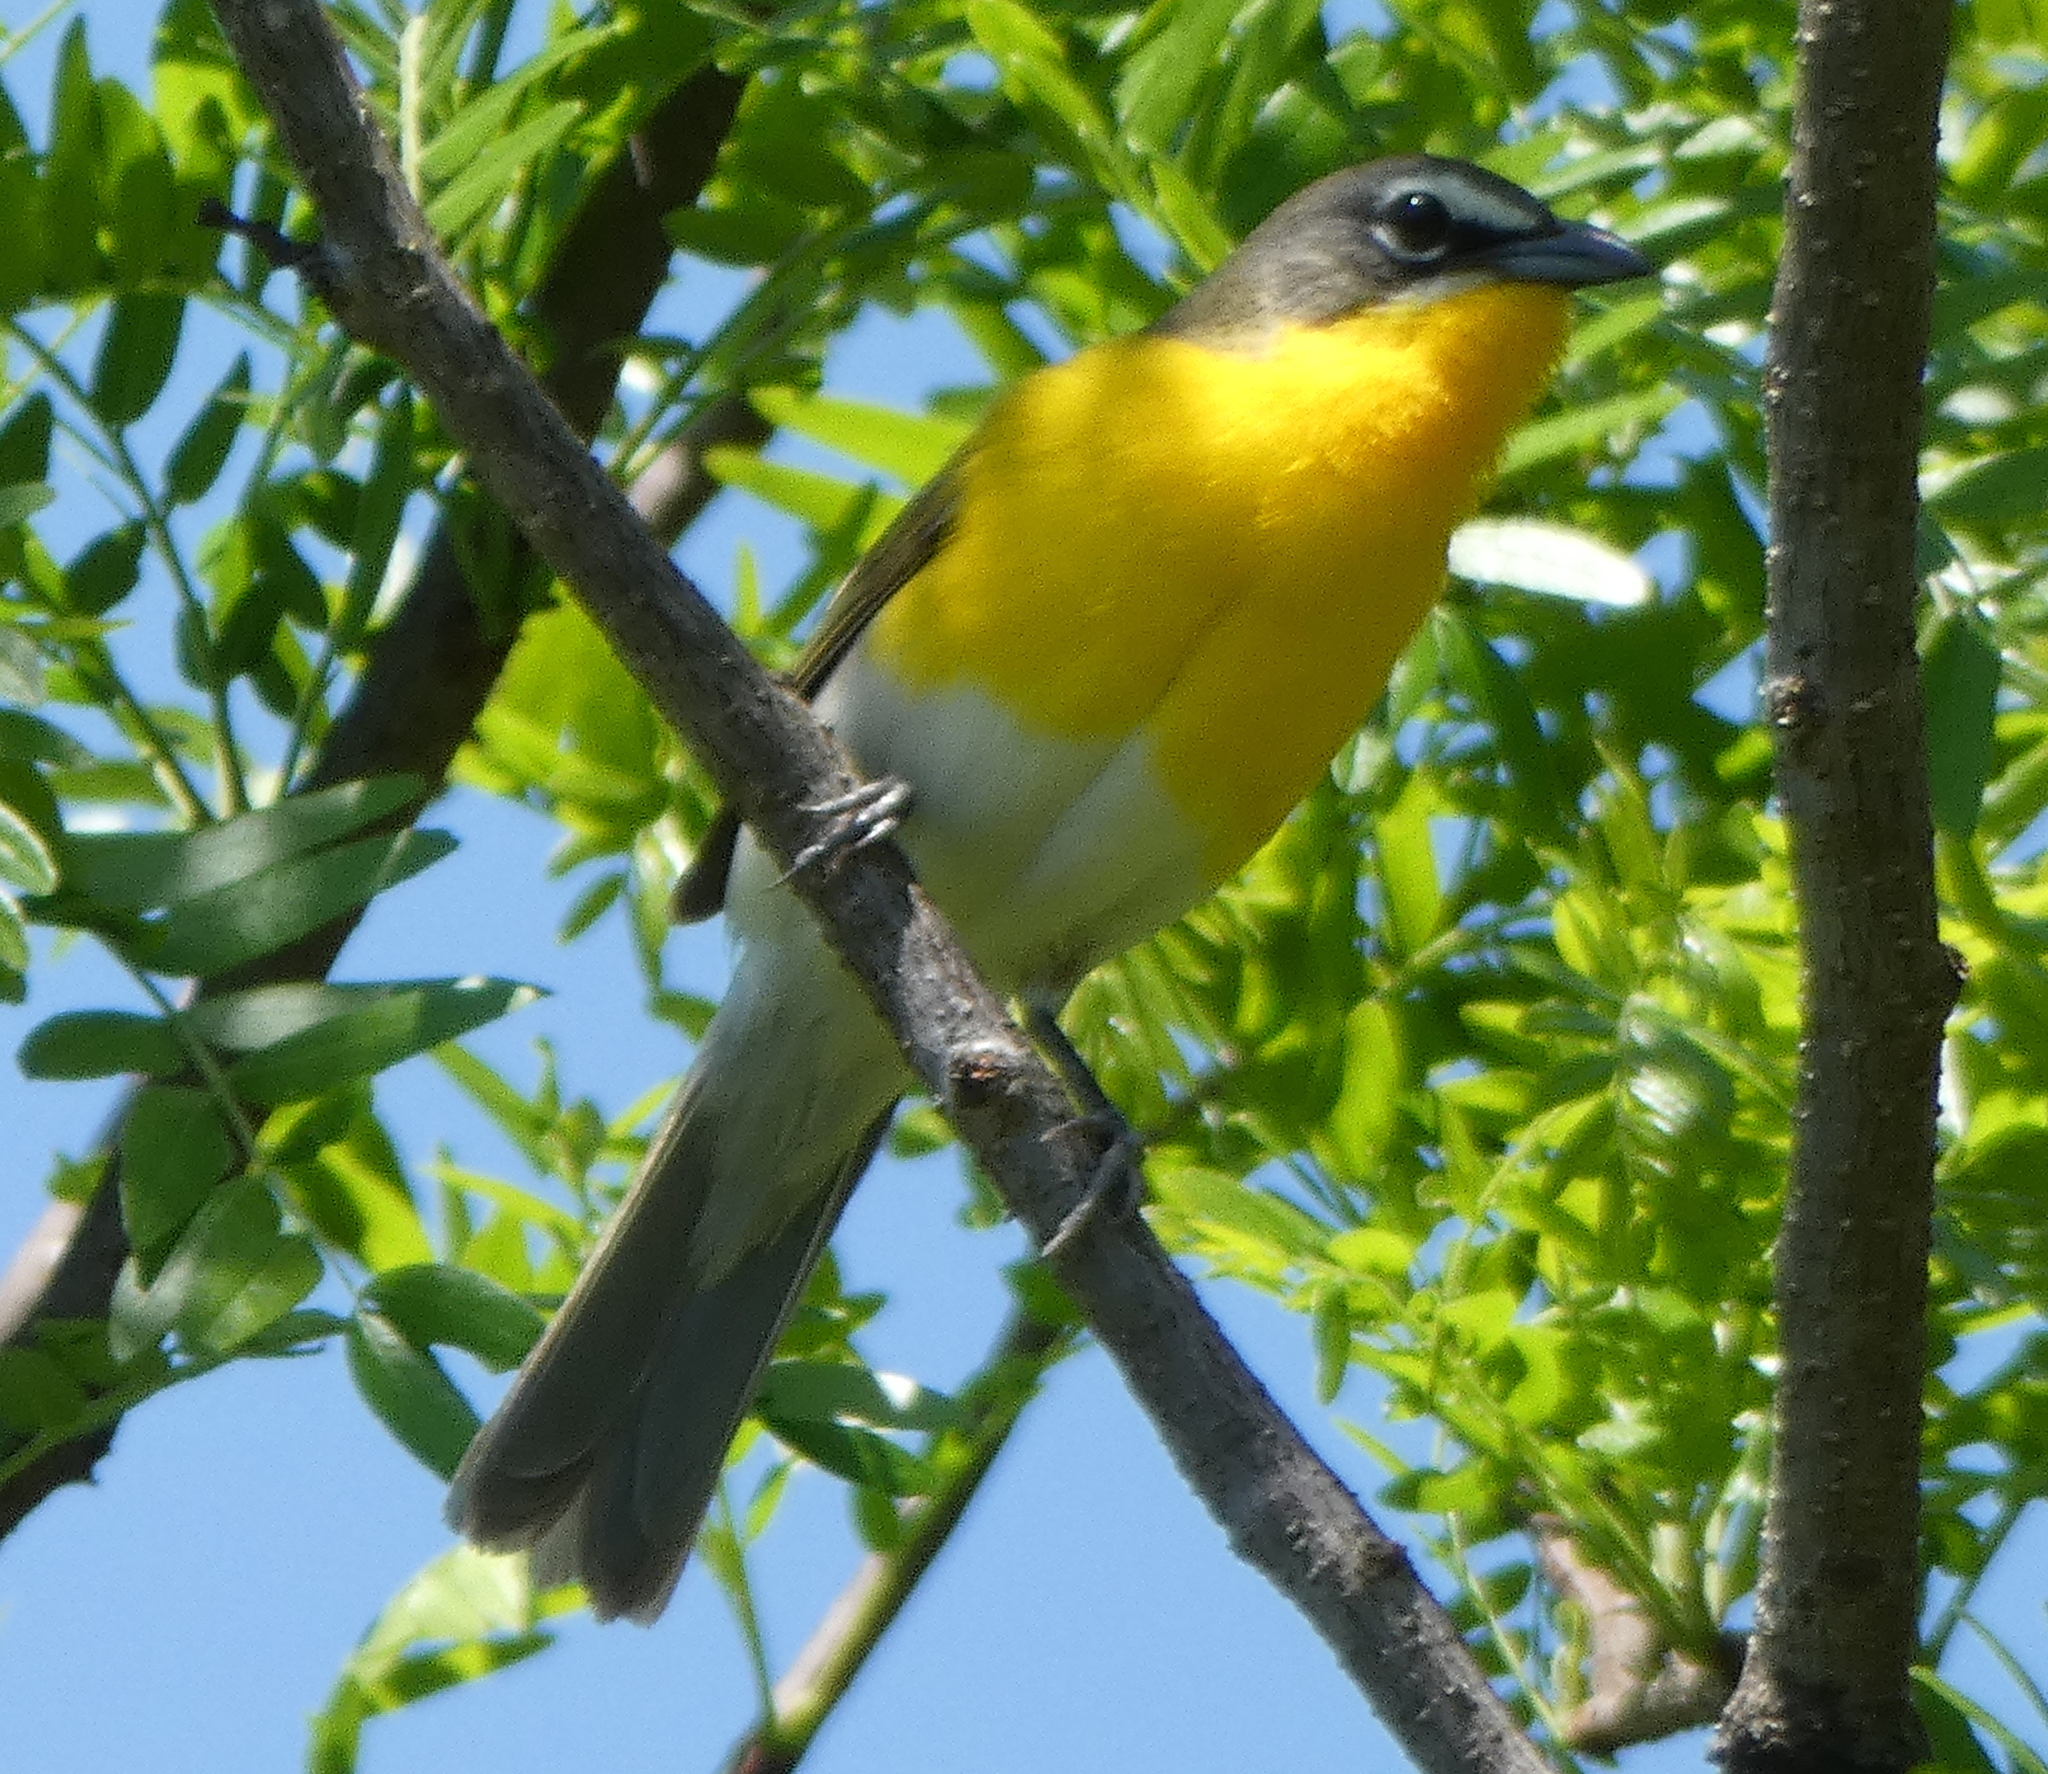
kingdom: Animalia
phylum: Chordata
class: Aves
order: Passeriformes
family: Parulidae
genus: Icteria
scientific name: Icteria virens
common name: Yellow-breasted chat
